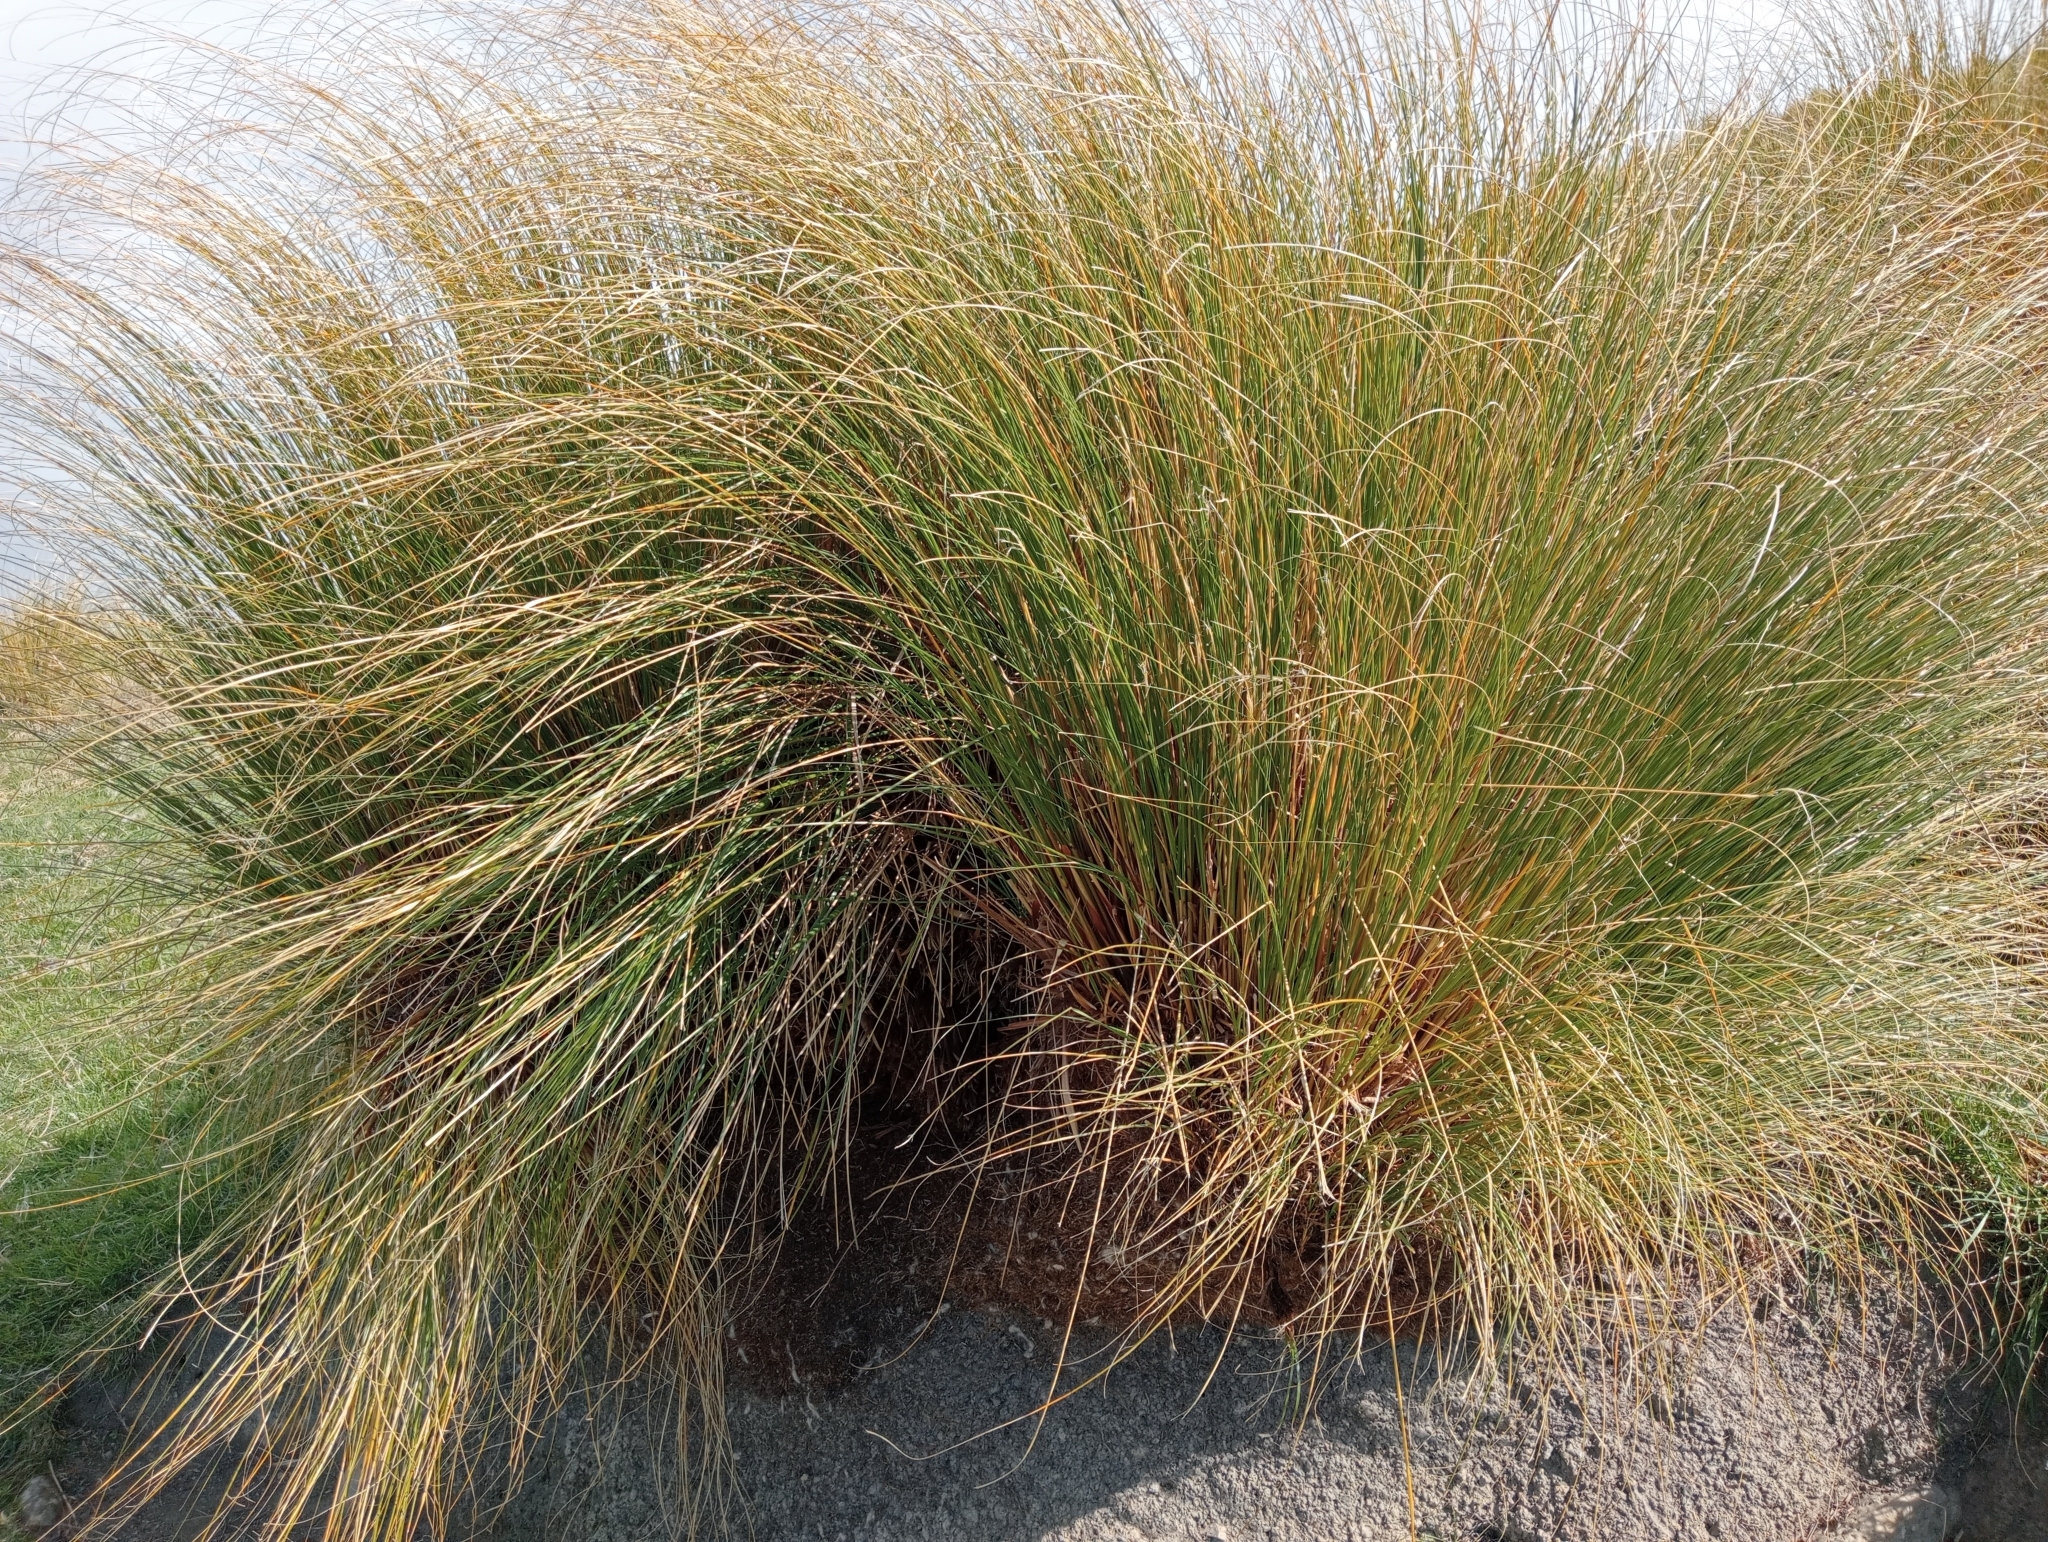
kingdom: Plantae
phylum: Tracheophyta
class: Liliopsida
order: Poales
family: Poaceae
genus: Chionochloa
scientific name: Chionochloa rigida
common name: Narrow leaved snow tussock
